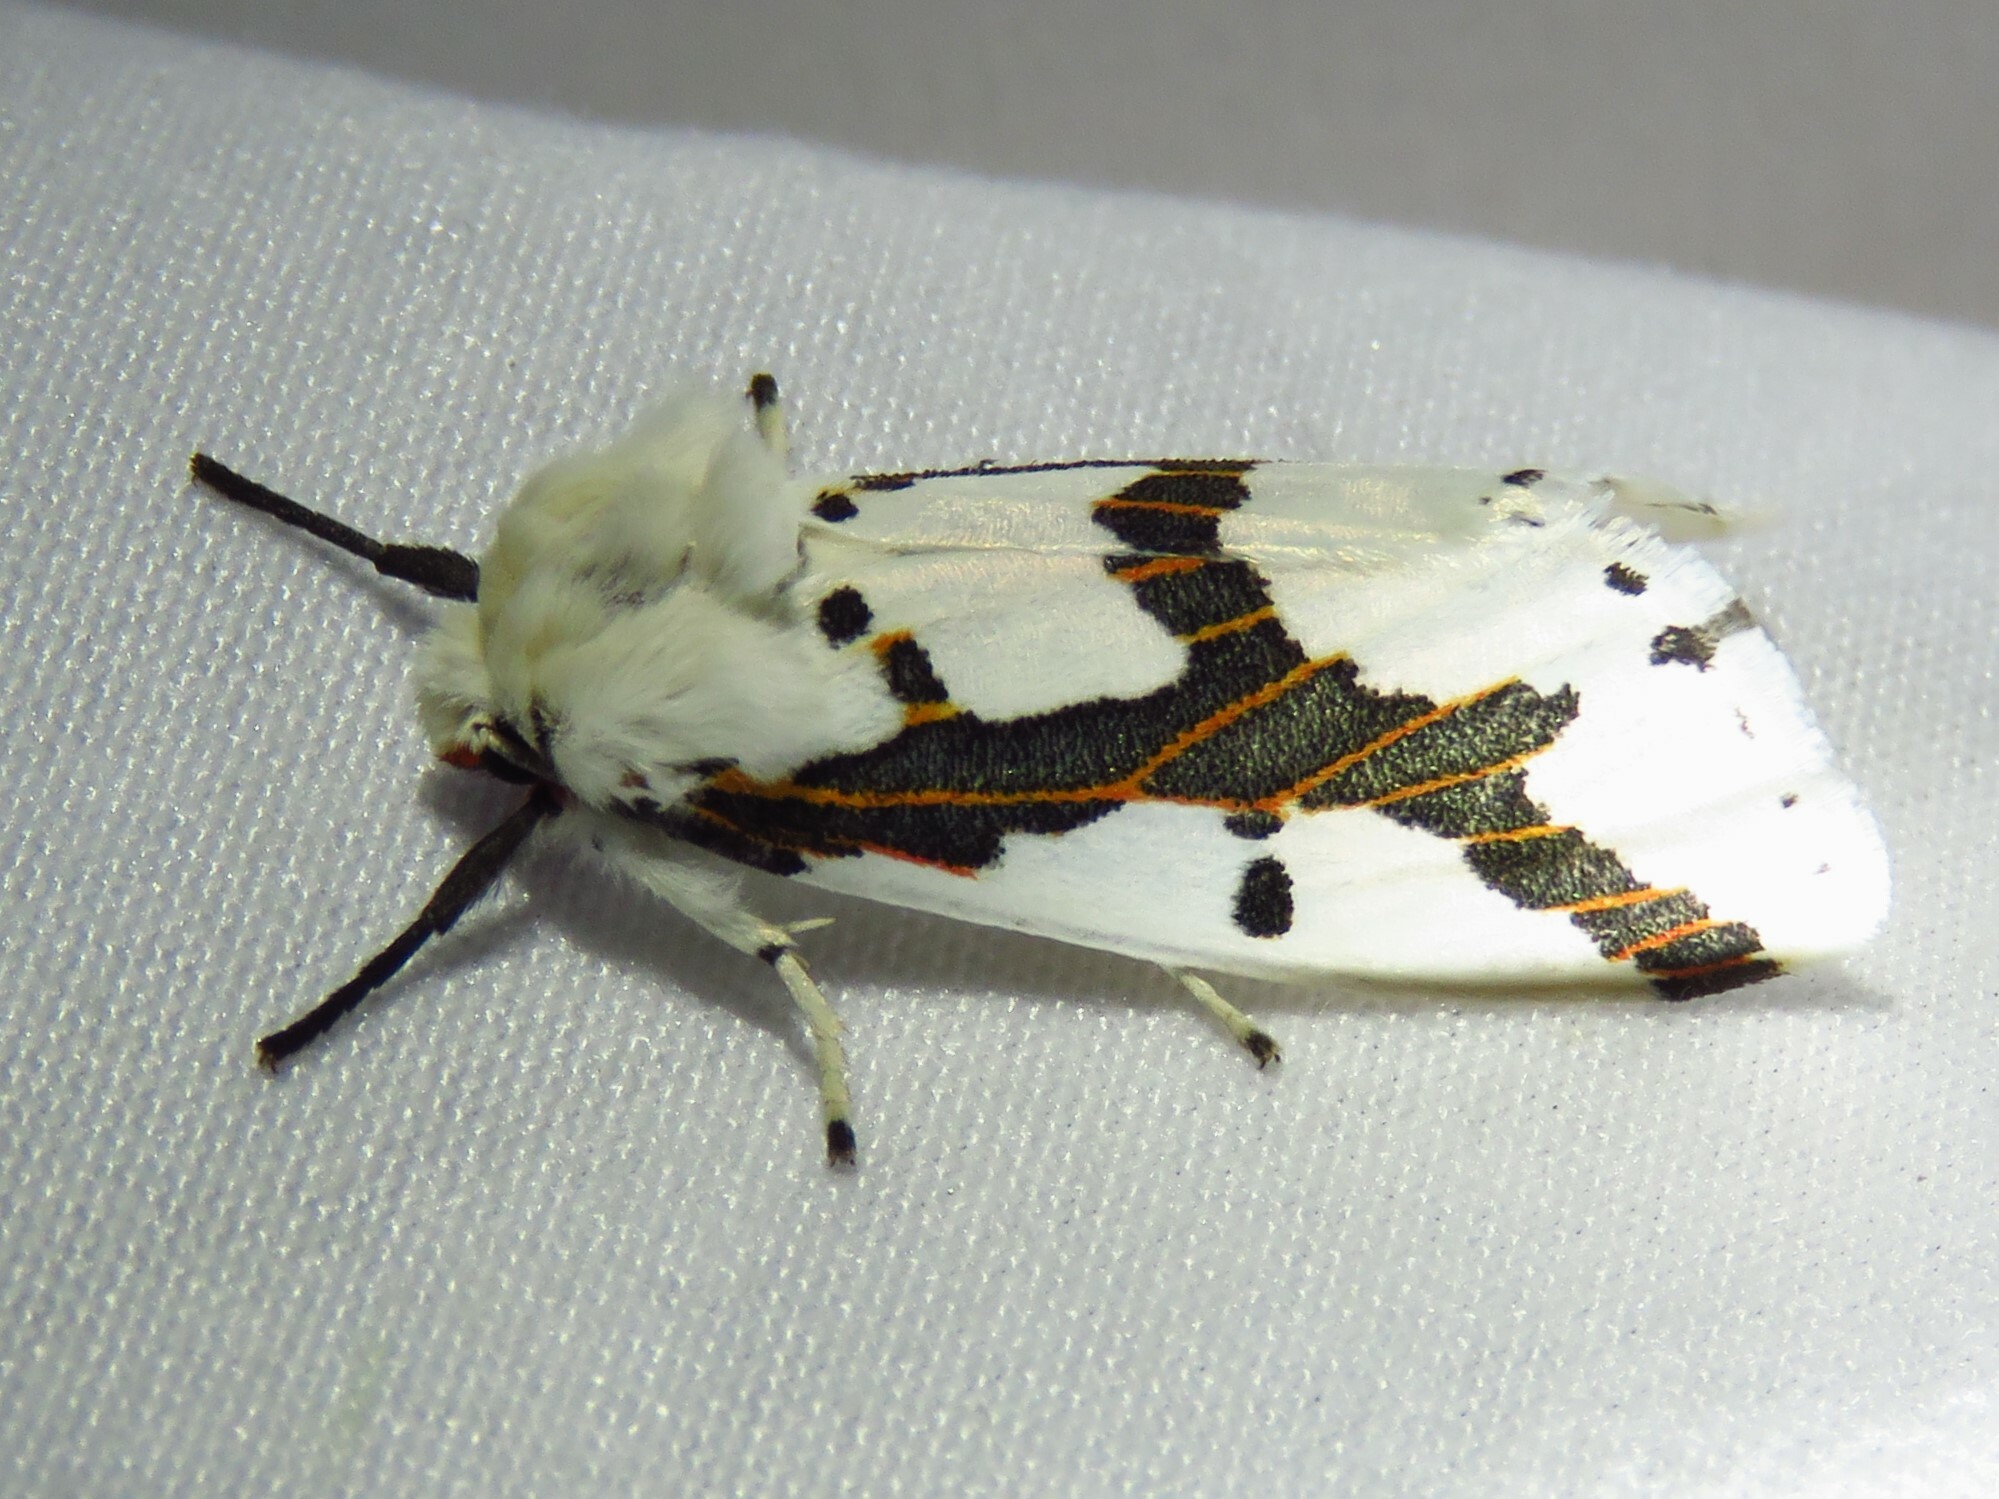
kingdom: Animalia
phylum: Arthropoda
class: Insecta
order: Lepidoptera
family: Erebidae
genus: Euerythra
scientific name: Euerythra phasma
